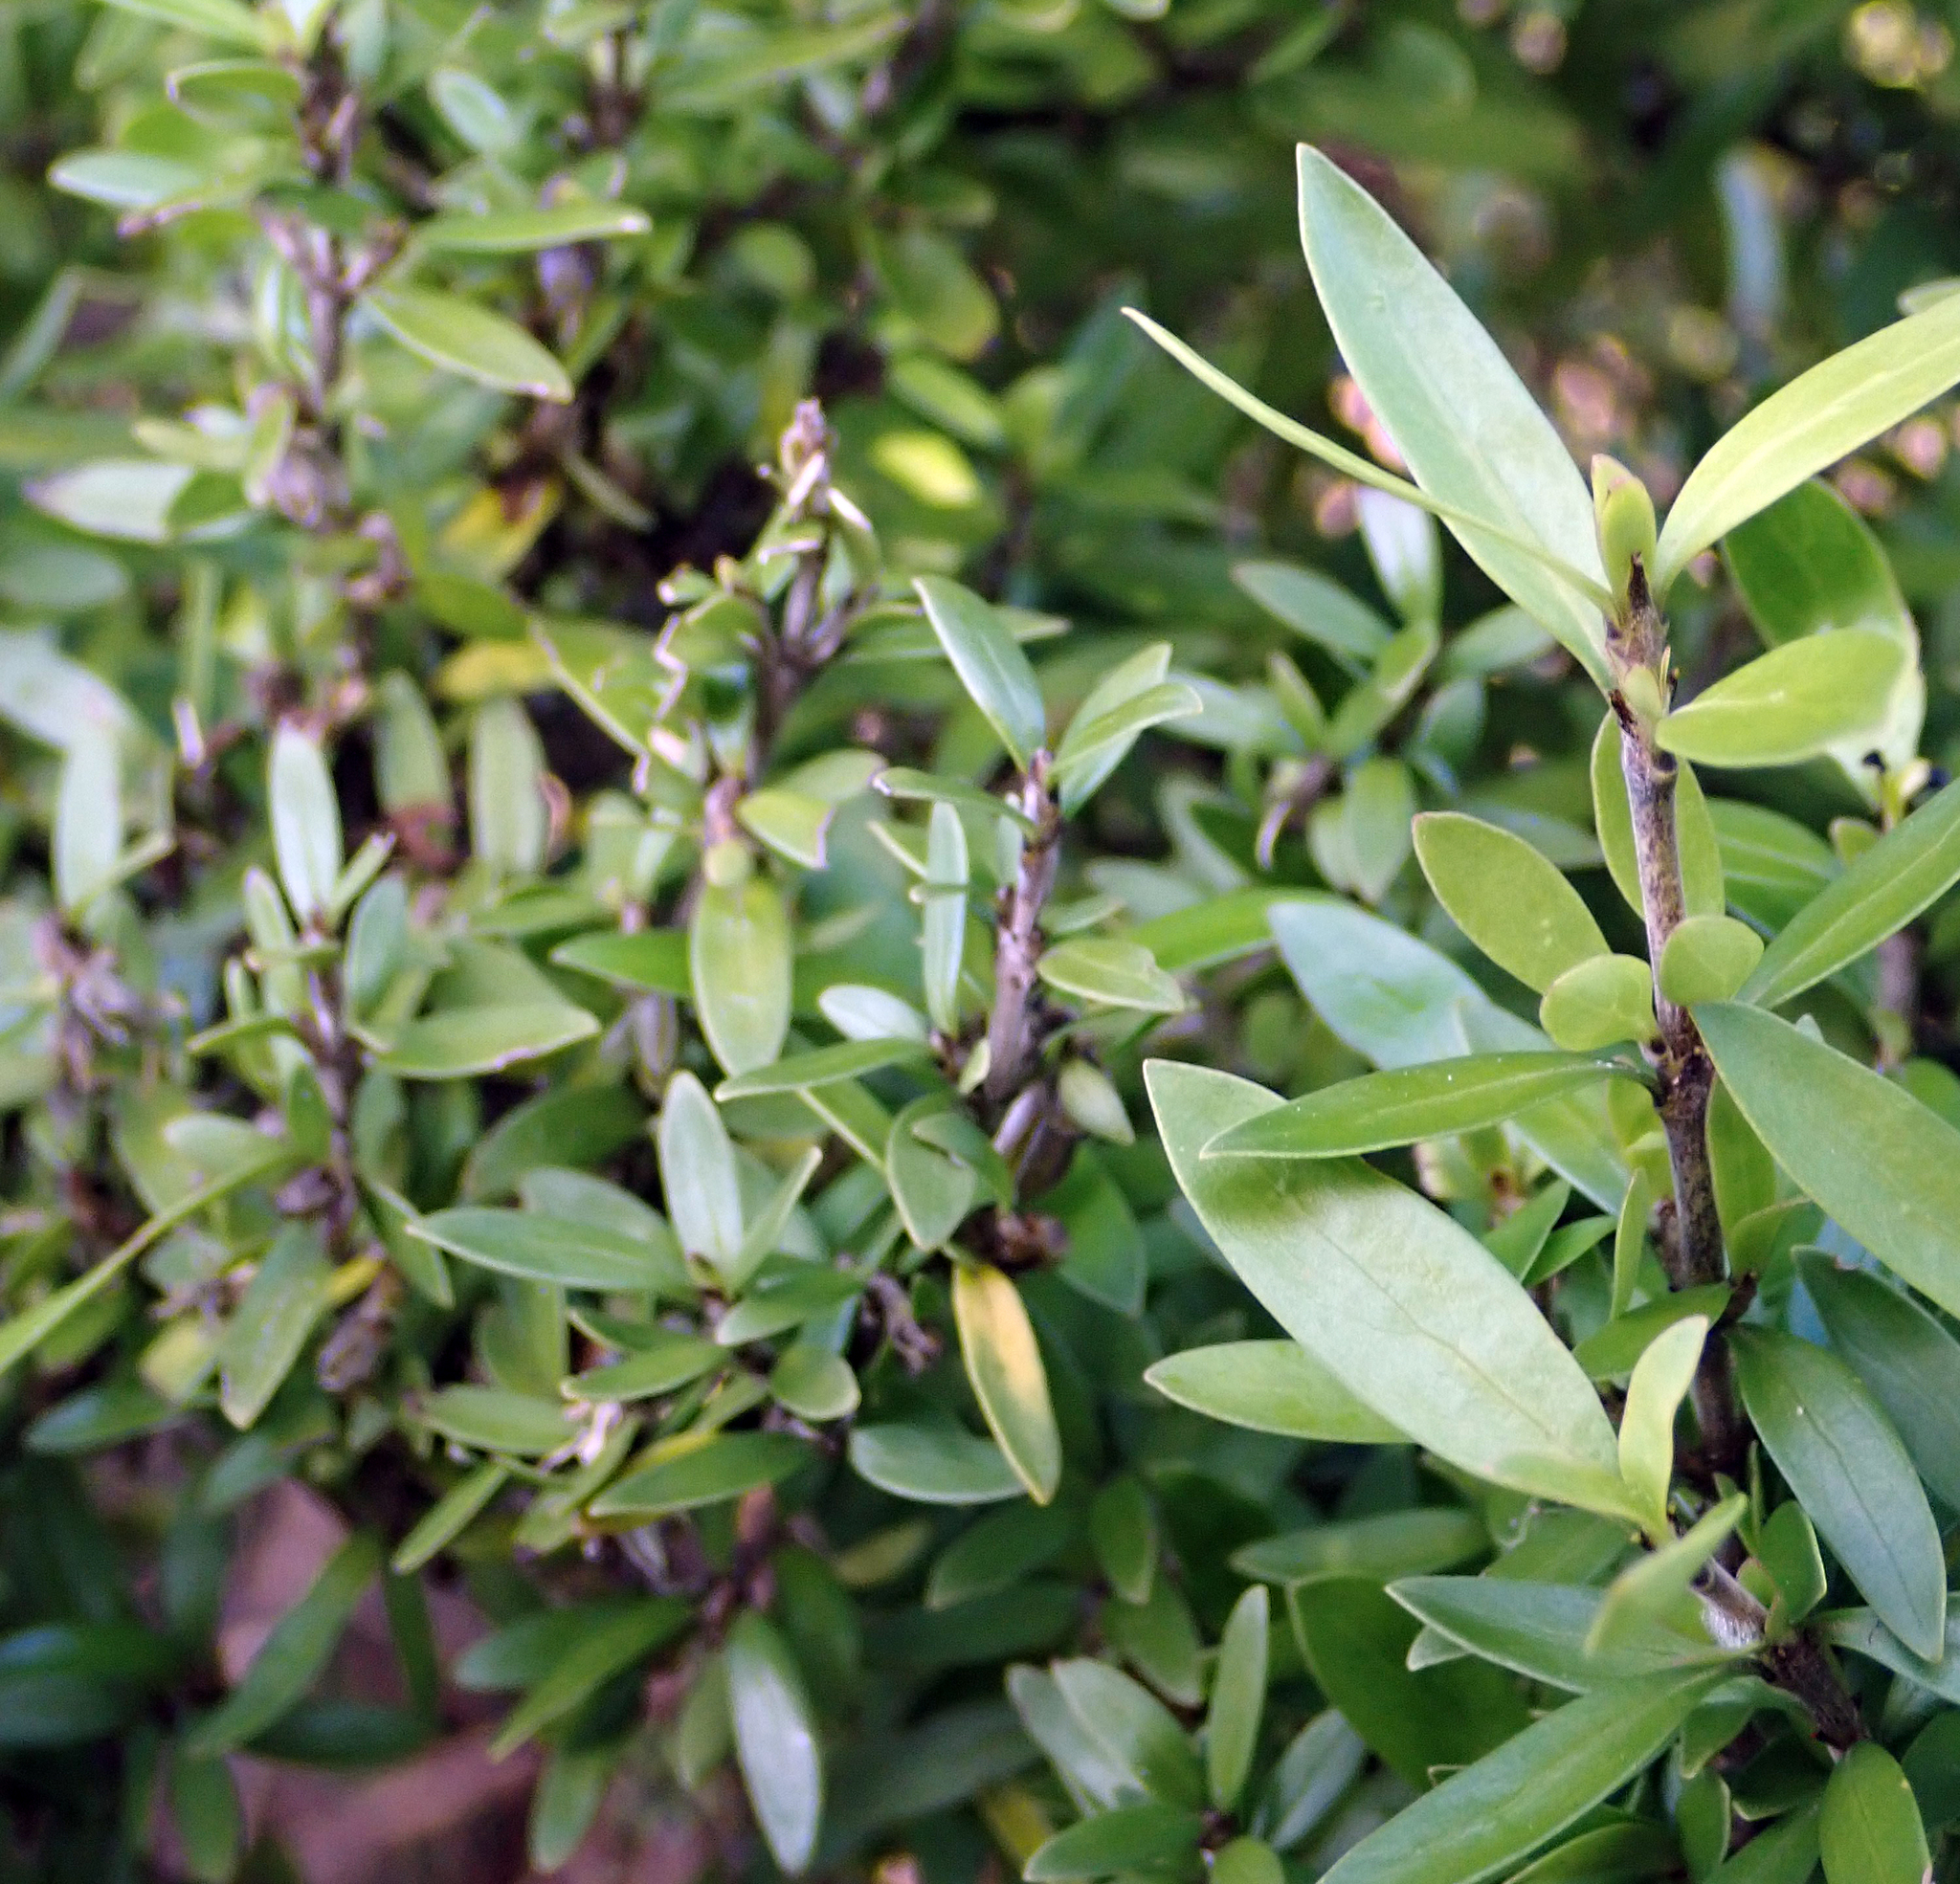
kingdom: Plantae
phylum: Tracheophyta
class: Magnoliopsida
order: Gentianales
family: Rubiaceae
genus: Coprosma
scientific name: Coprosma propinqua
